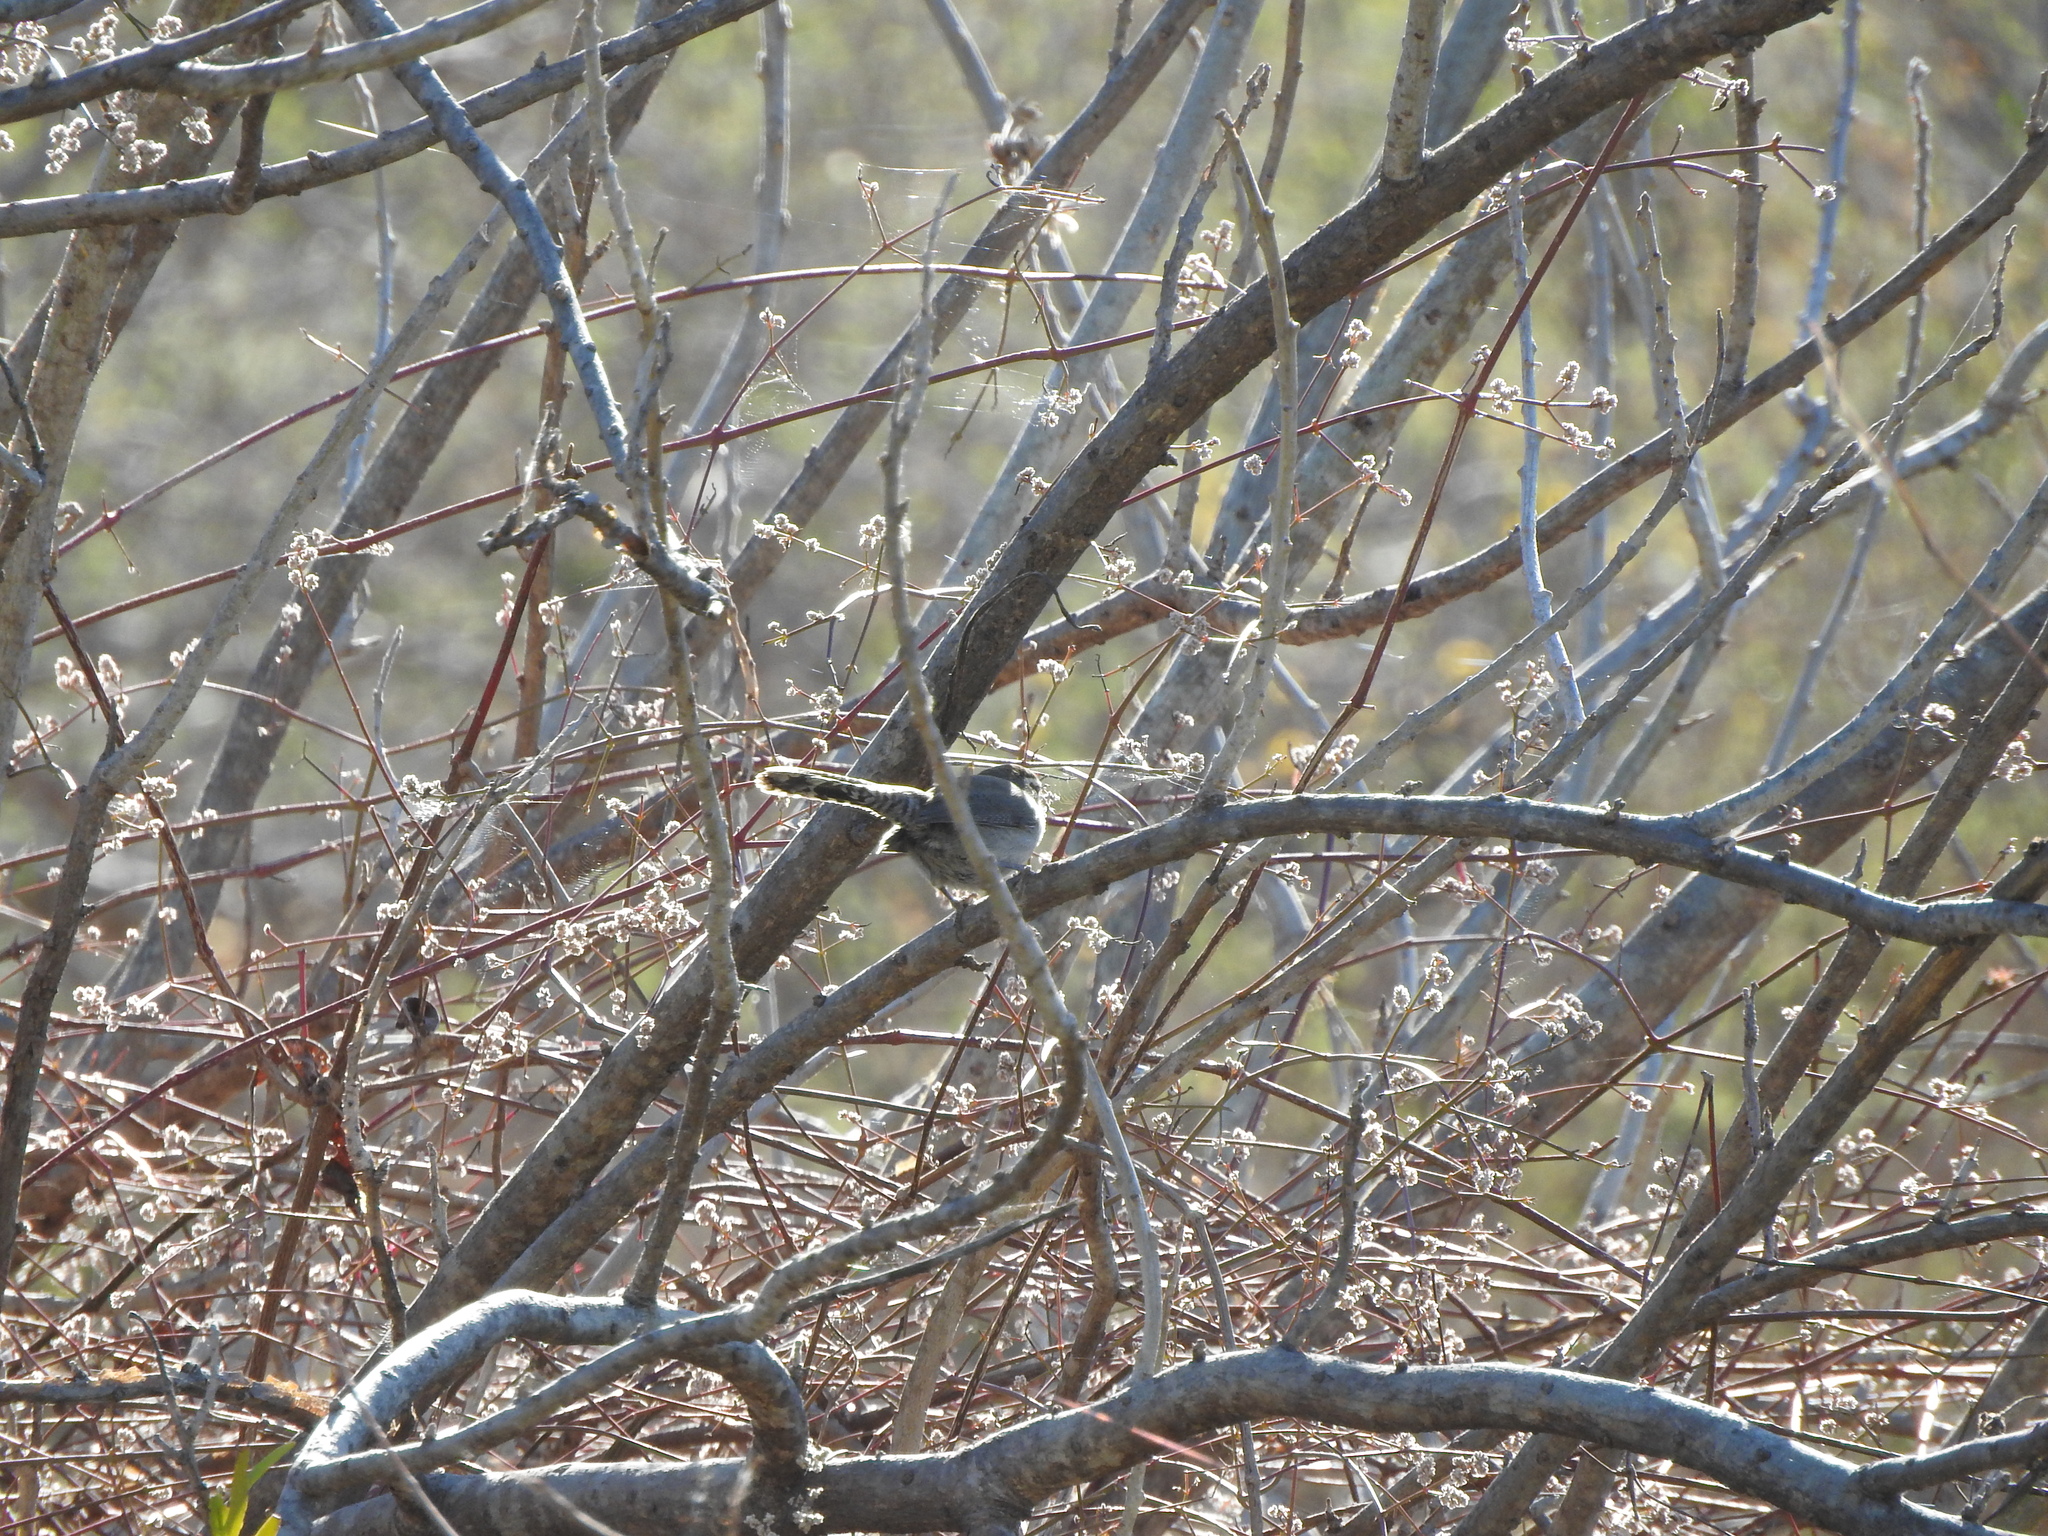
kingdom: Animalia
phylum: Chordata
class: Aves
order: Passeriformes
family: Troglodytidae
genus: Thryomanes
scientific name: Thryomanes bewickii
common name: Bewick's wren
